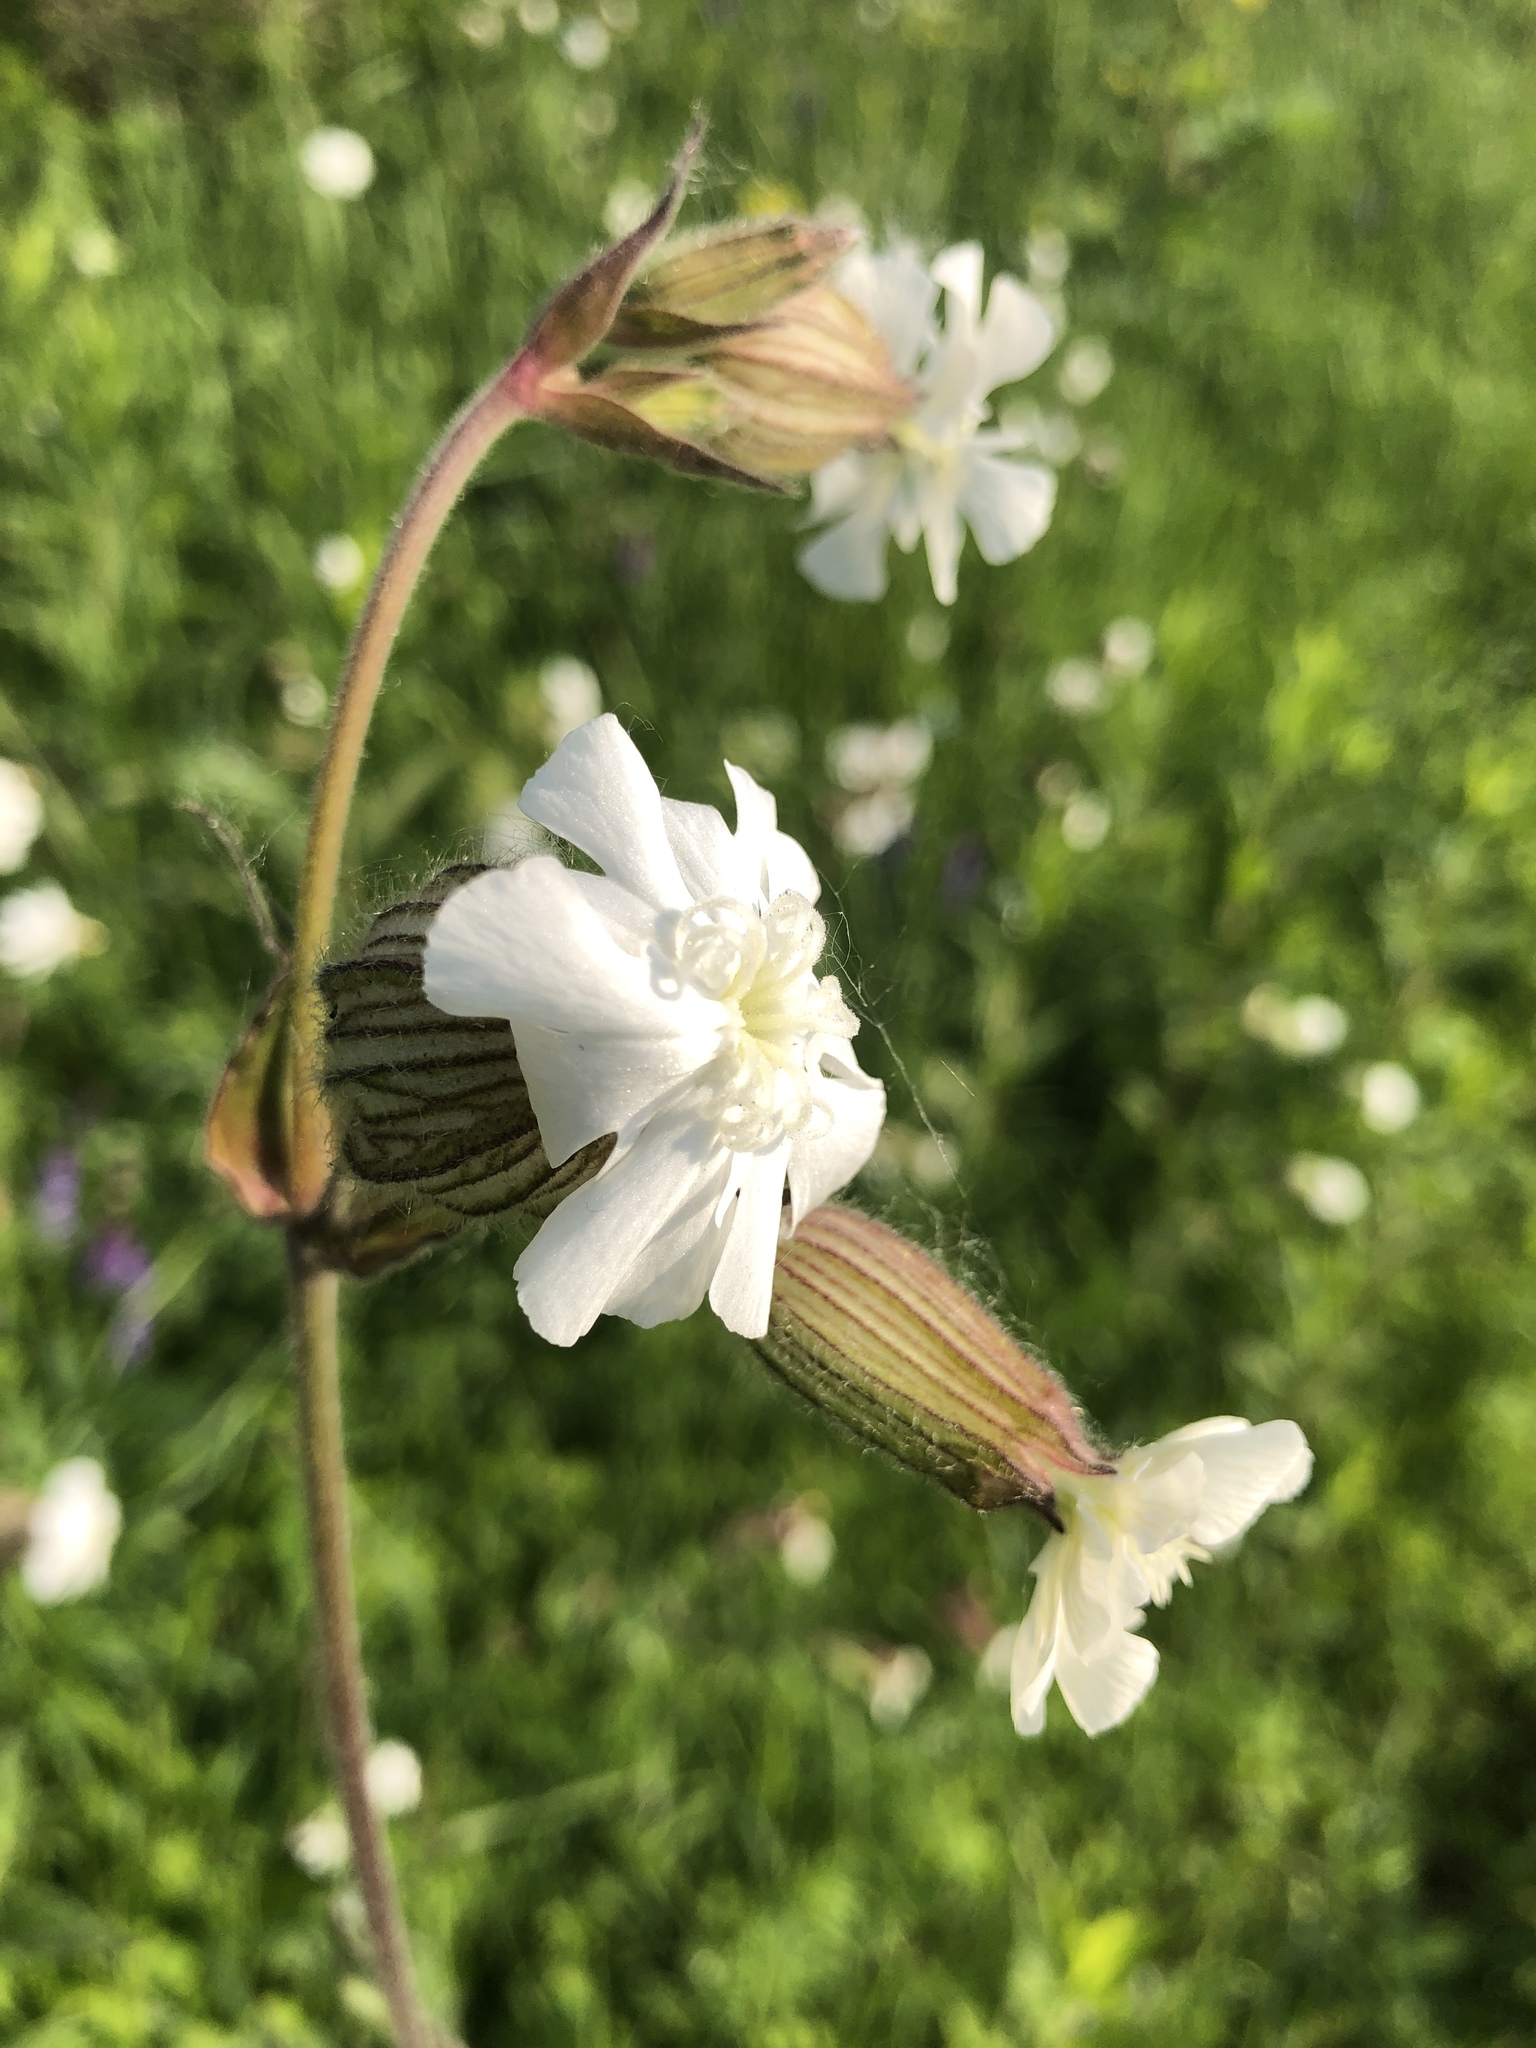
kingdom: Plantae
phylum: Tracheophyta
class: Magnoliopsida
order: Caryophyllales
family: Caryophyllaceae
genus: Silene
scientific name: Silene latifolia
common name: White campion
